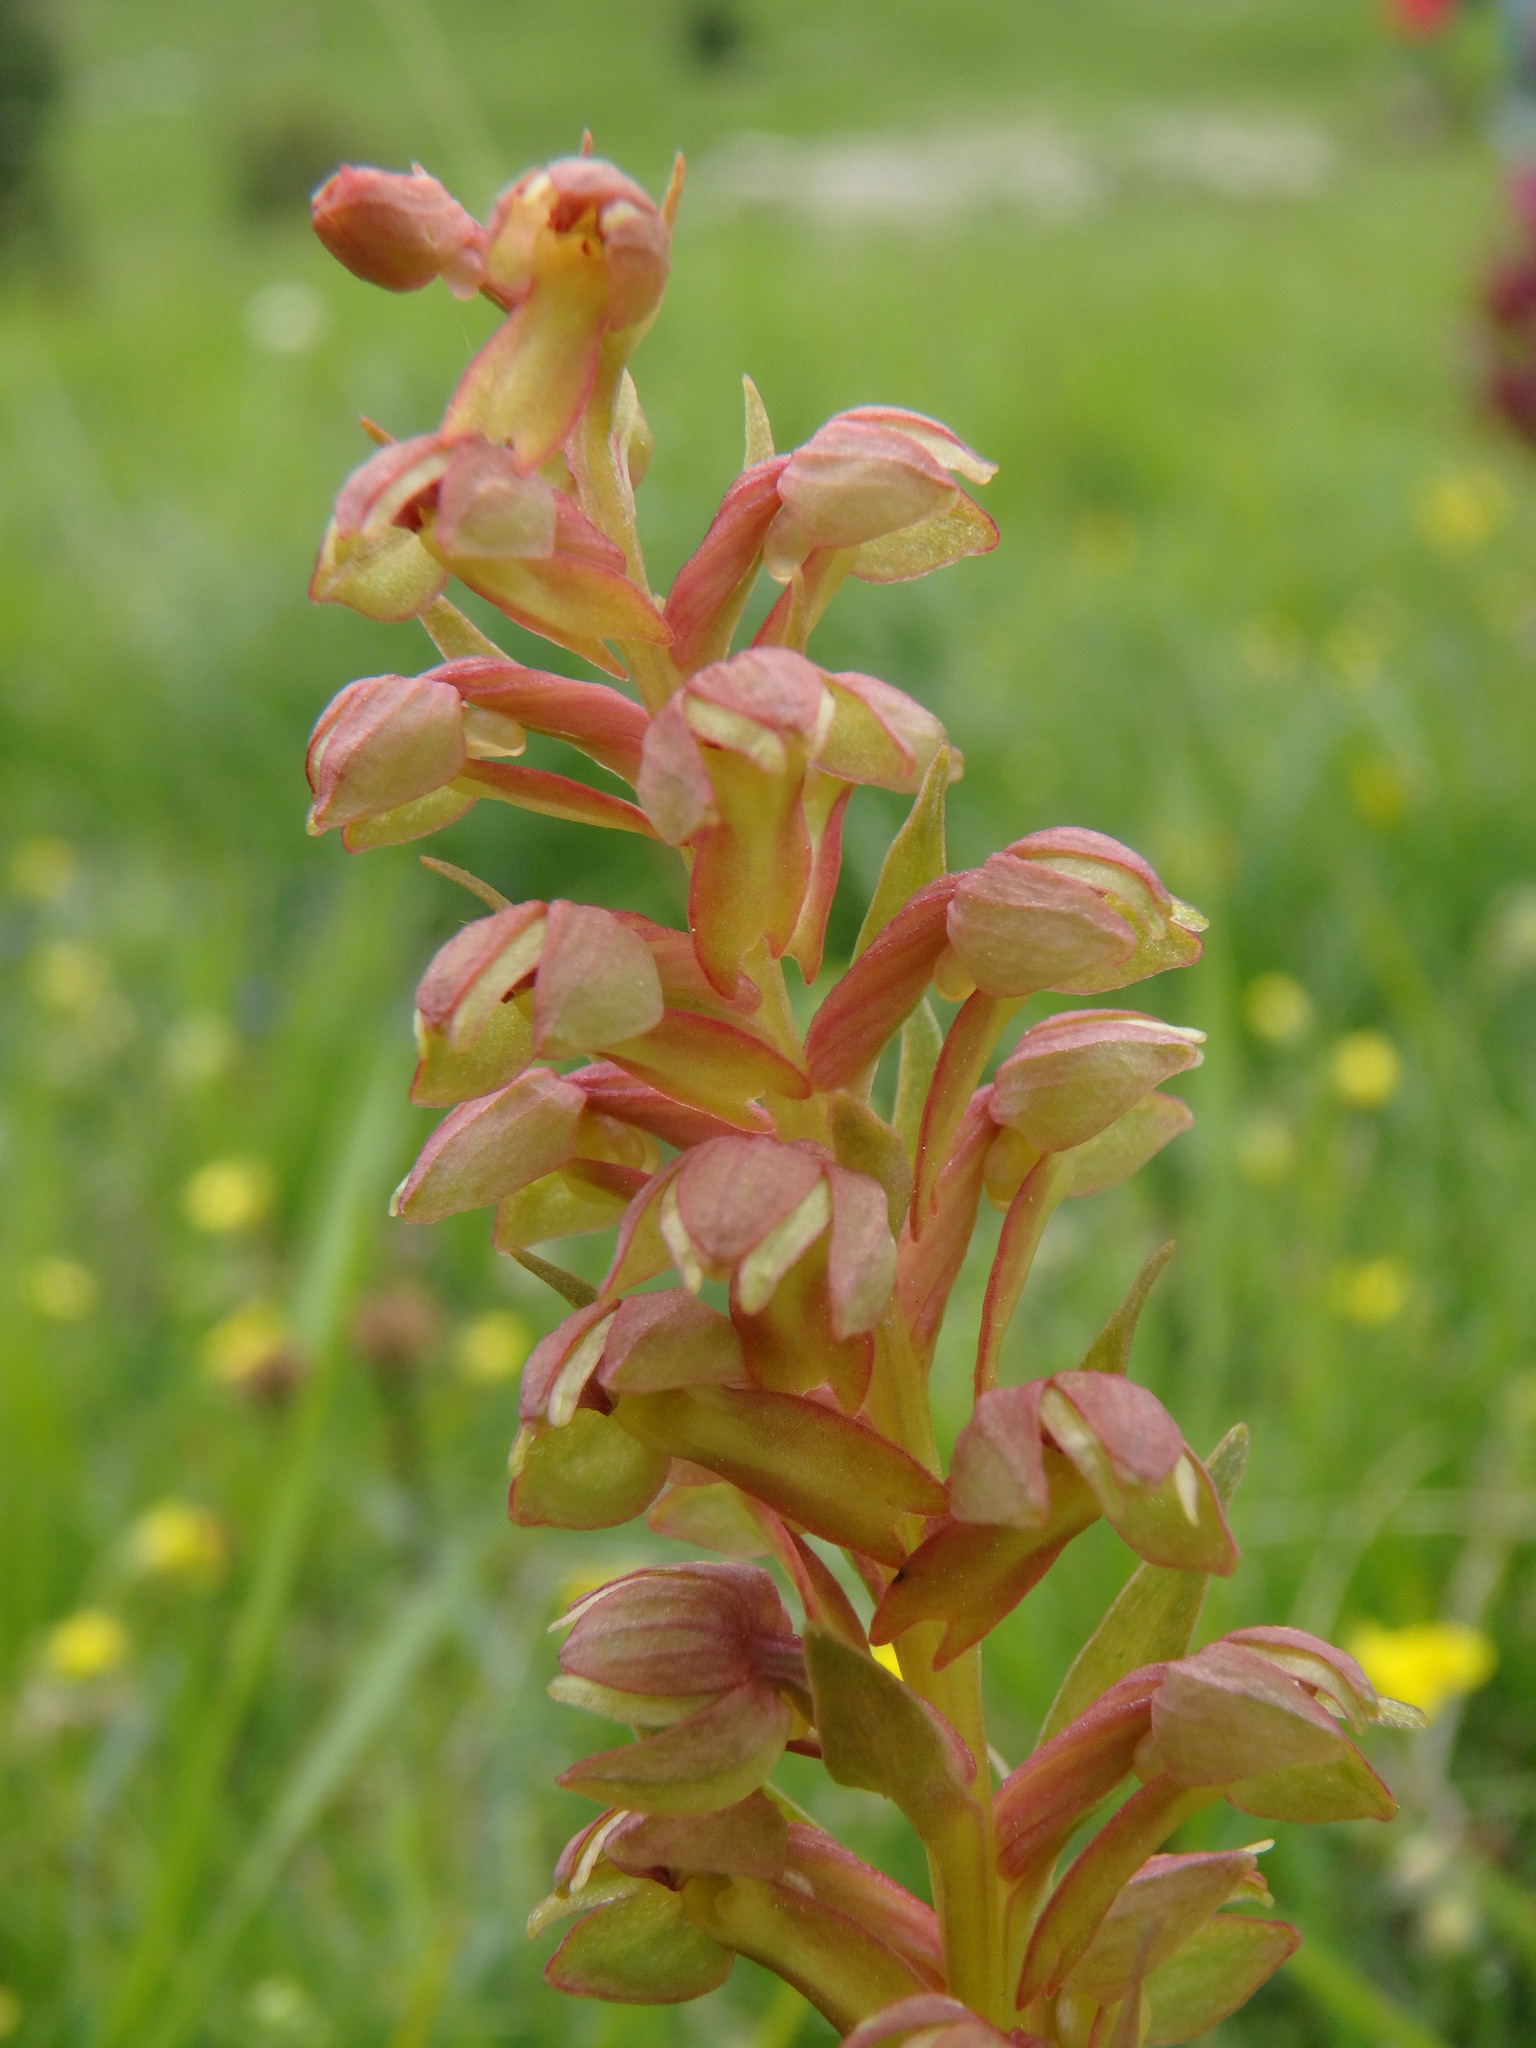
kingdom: Plantae
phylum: Tracheophyta
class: Liliopsida
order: Asparagales
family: Orchidaceae
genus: Dactylorhiza
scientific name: Dactylorhiza viridis
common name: Longbract frog orchid
